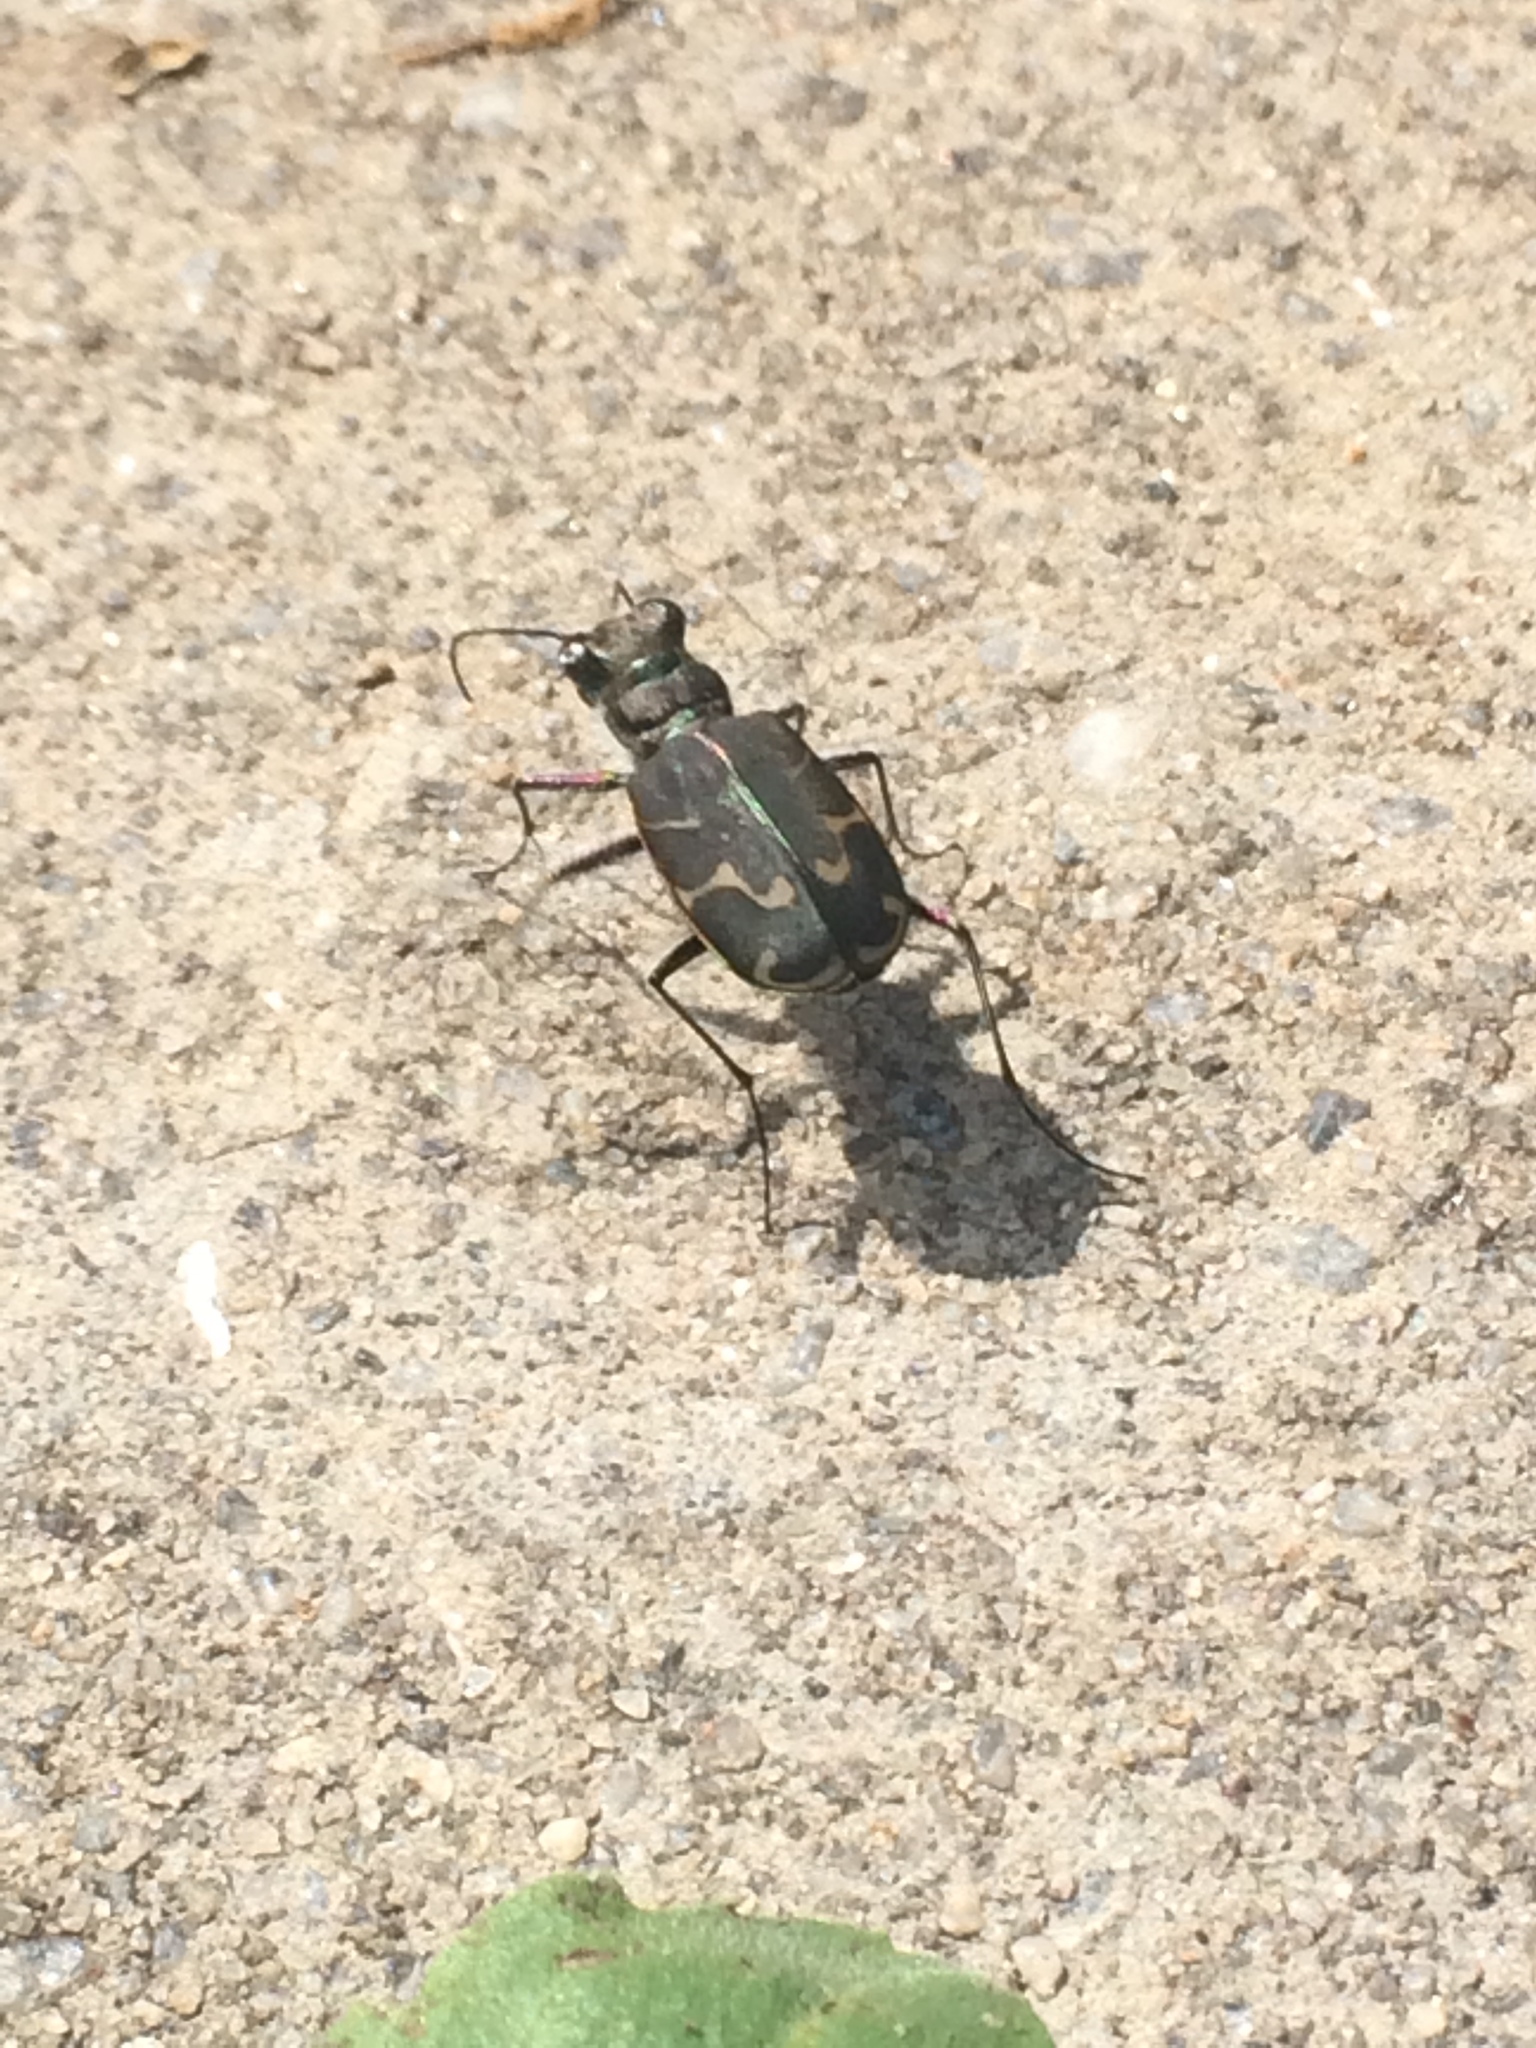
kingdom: Animalia
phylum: Arthropoda
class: Insecta
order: Coleoptera
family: Carabidae
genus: Cicindela
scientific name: Cicindela tranquebarica
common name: Oblique-lined tiger beetle
